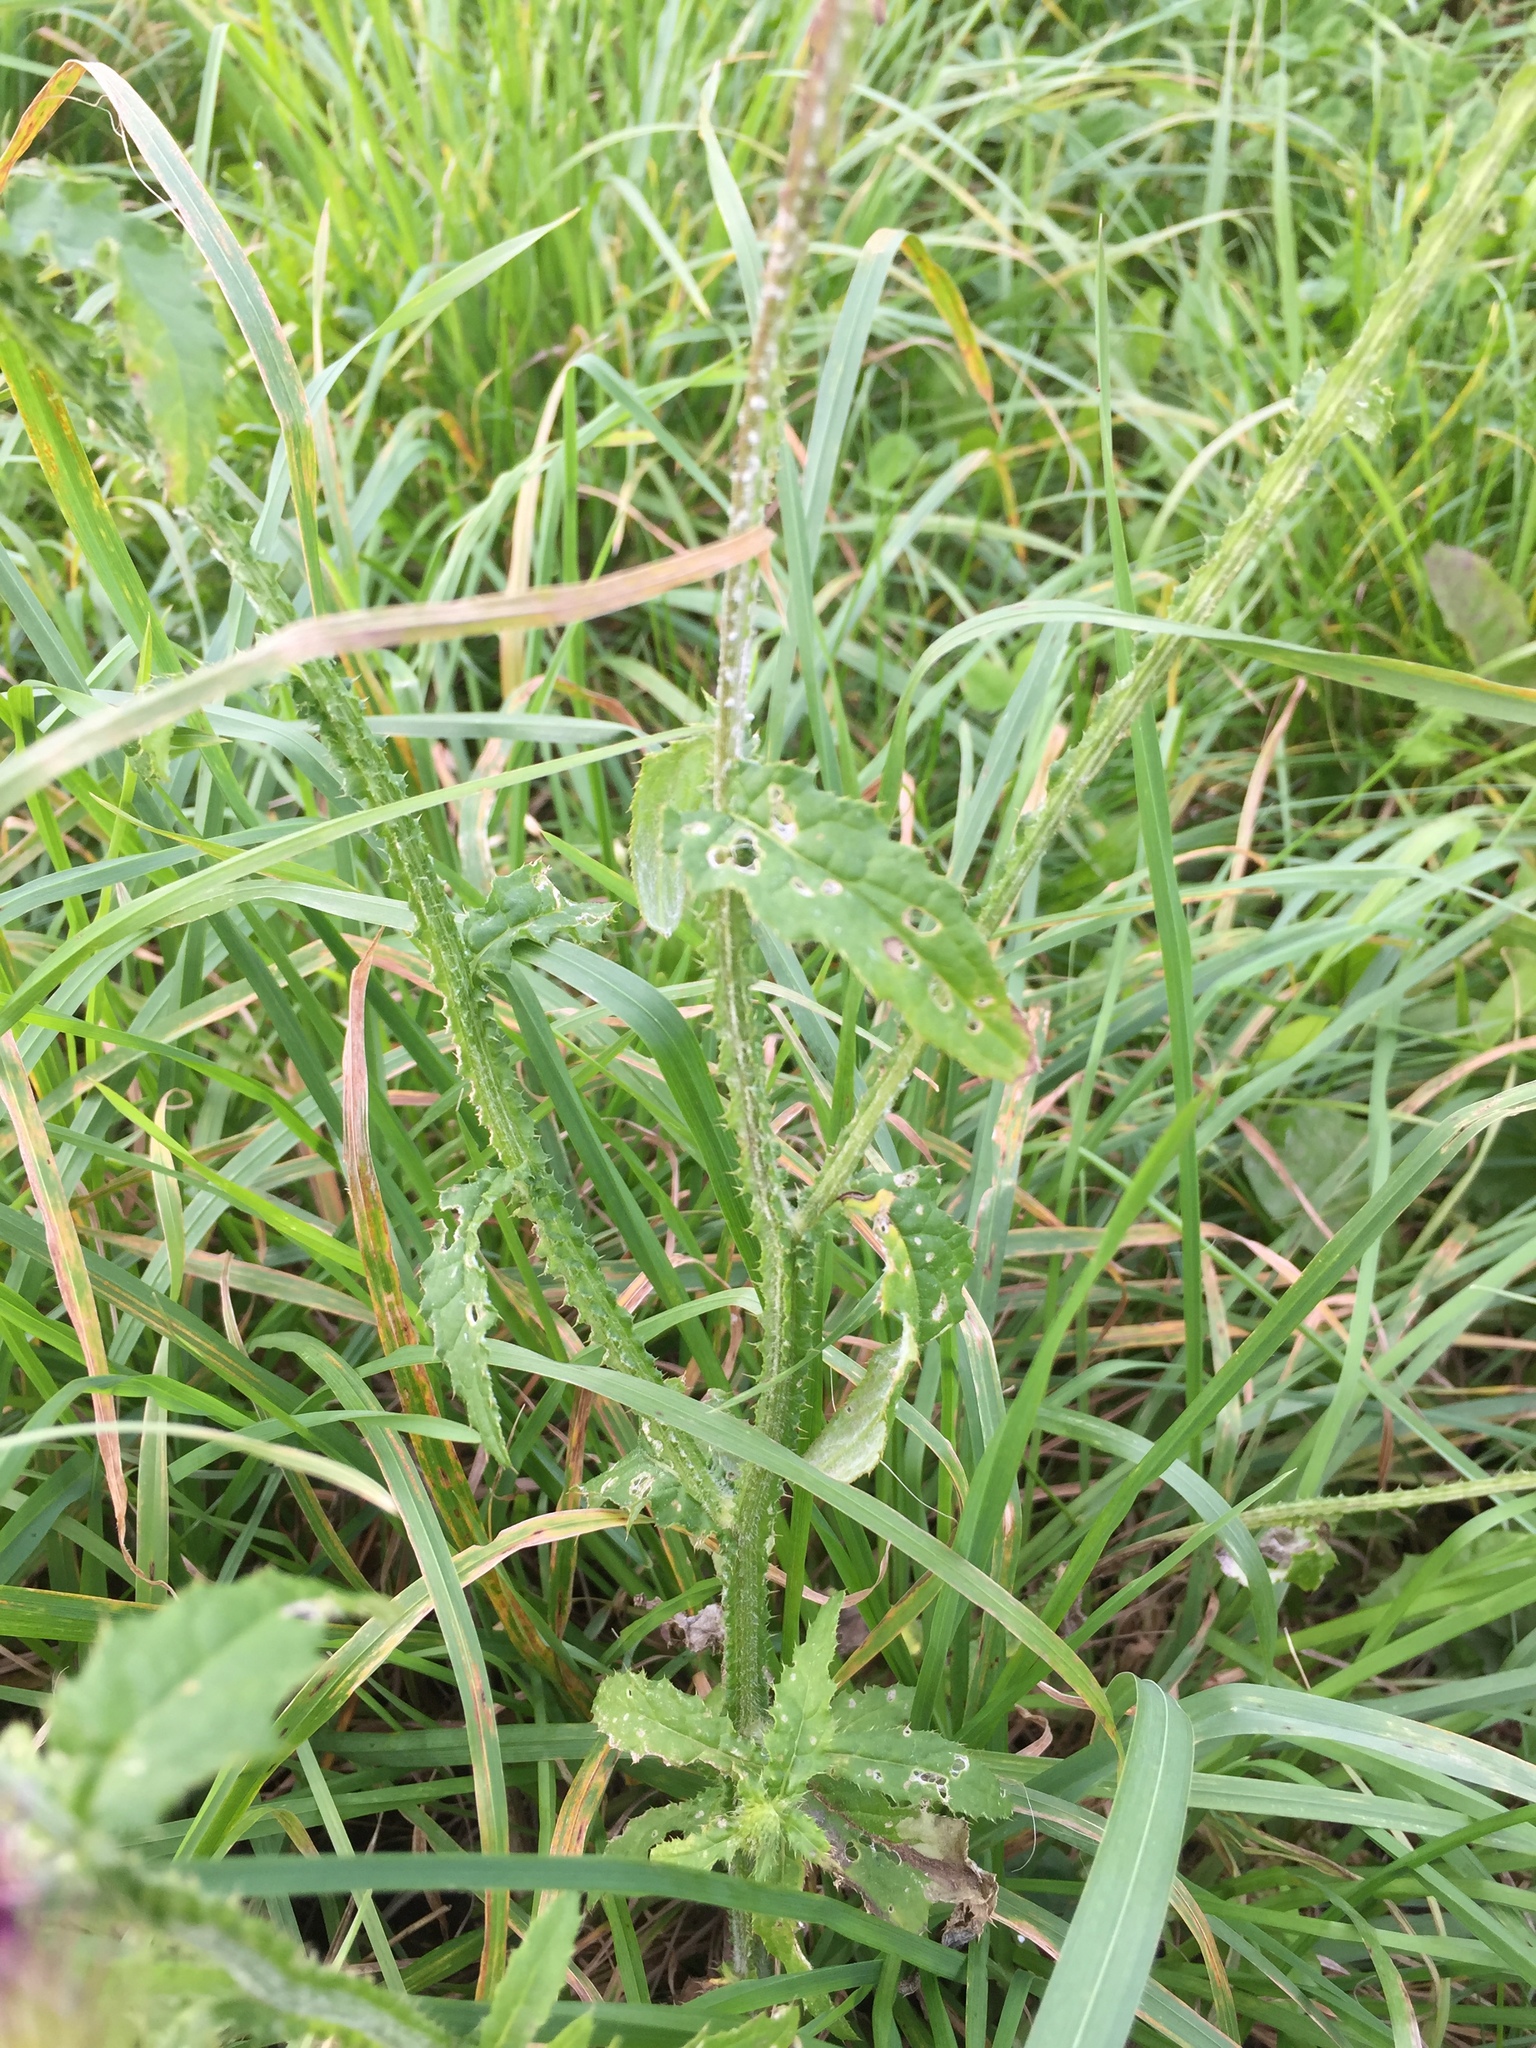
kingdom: Plantae
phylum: Tracheophyta
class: Magnoliopsida
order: Asterales
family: Asteraceae
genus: Carduus
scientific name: Carduus crispus
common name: Welted thistle
